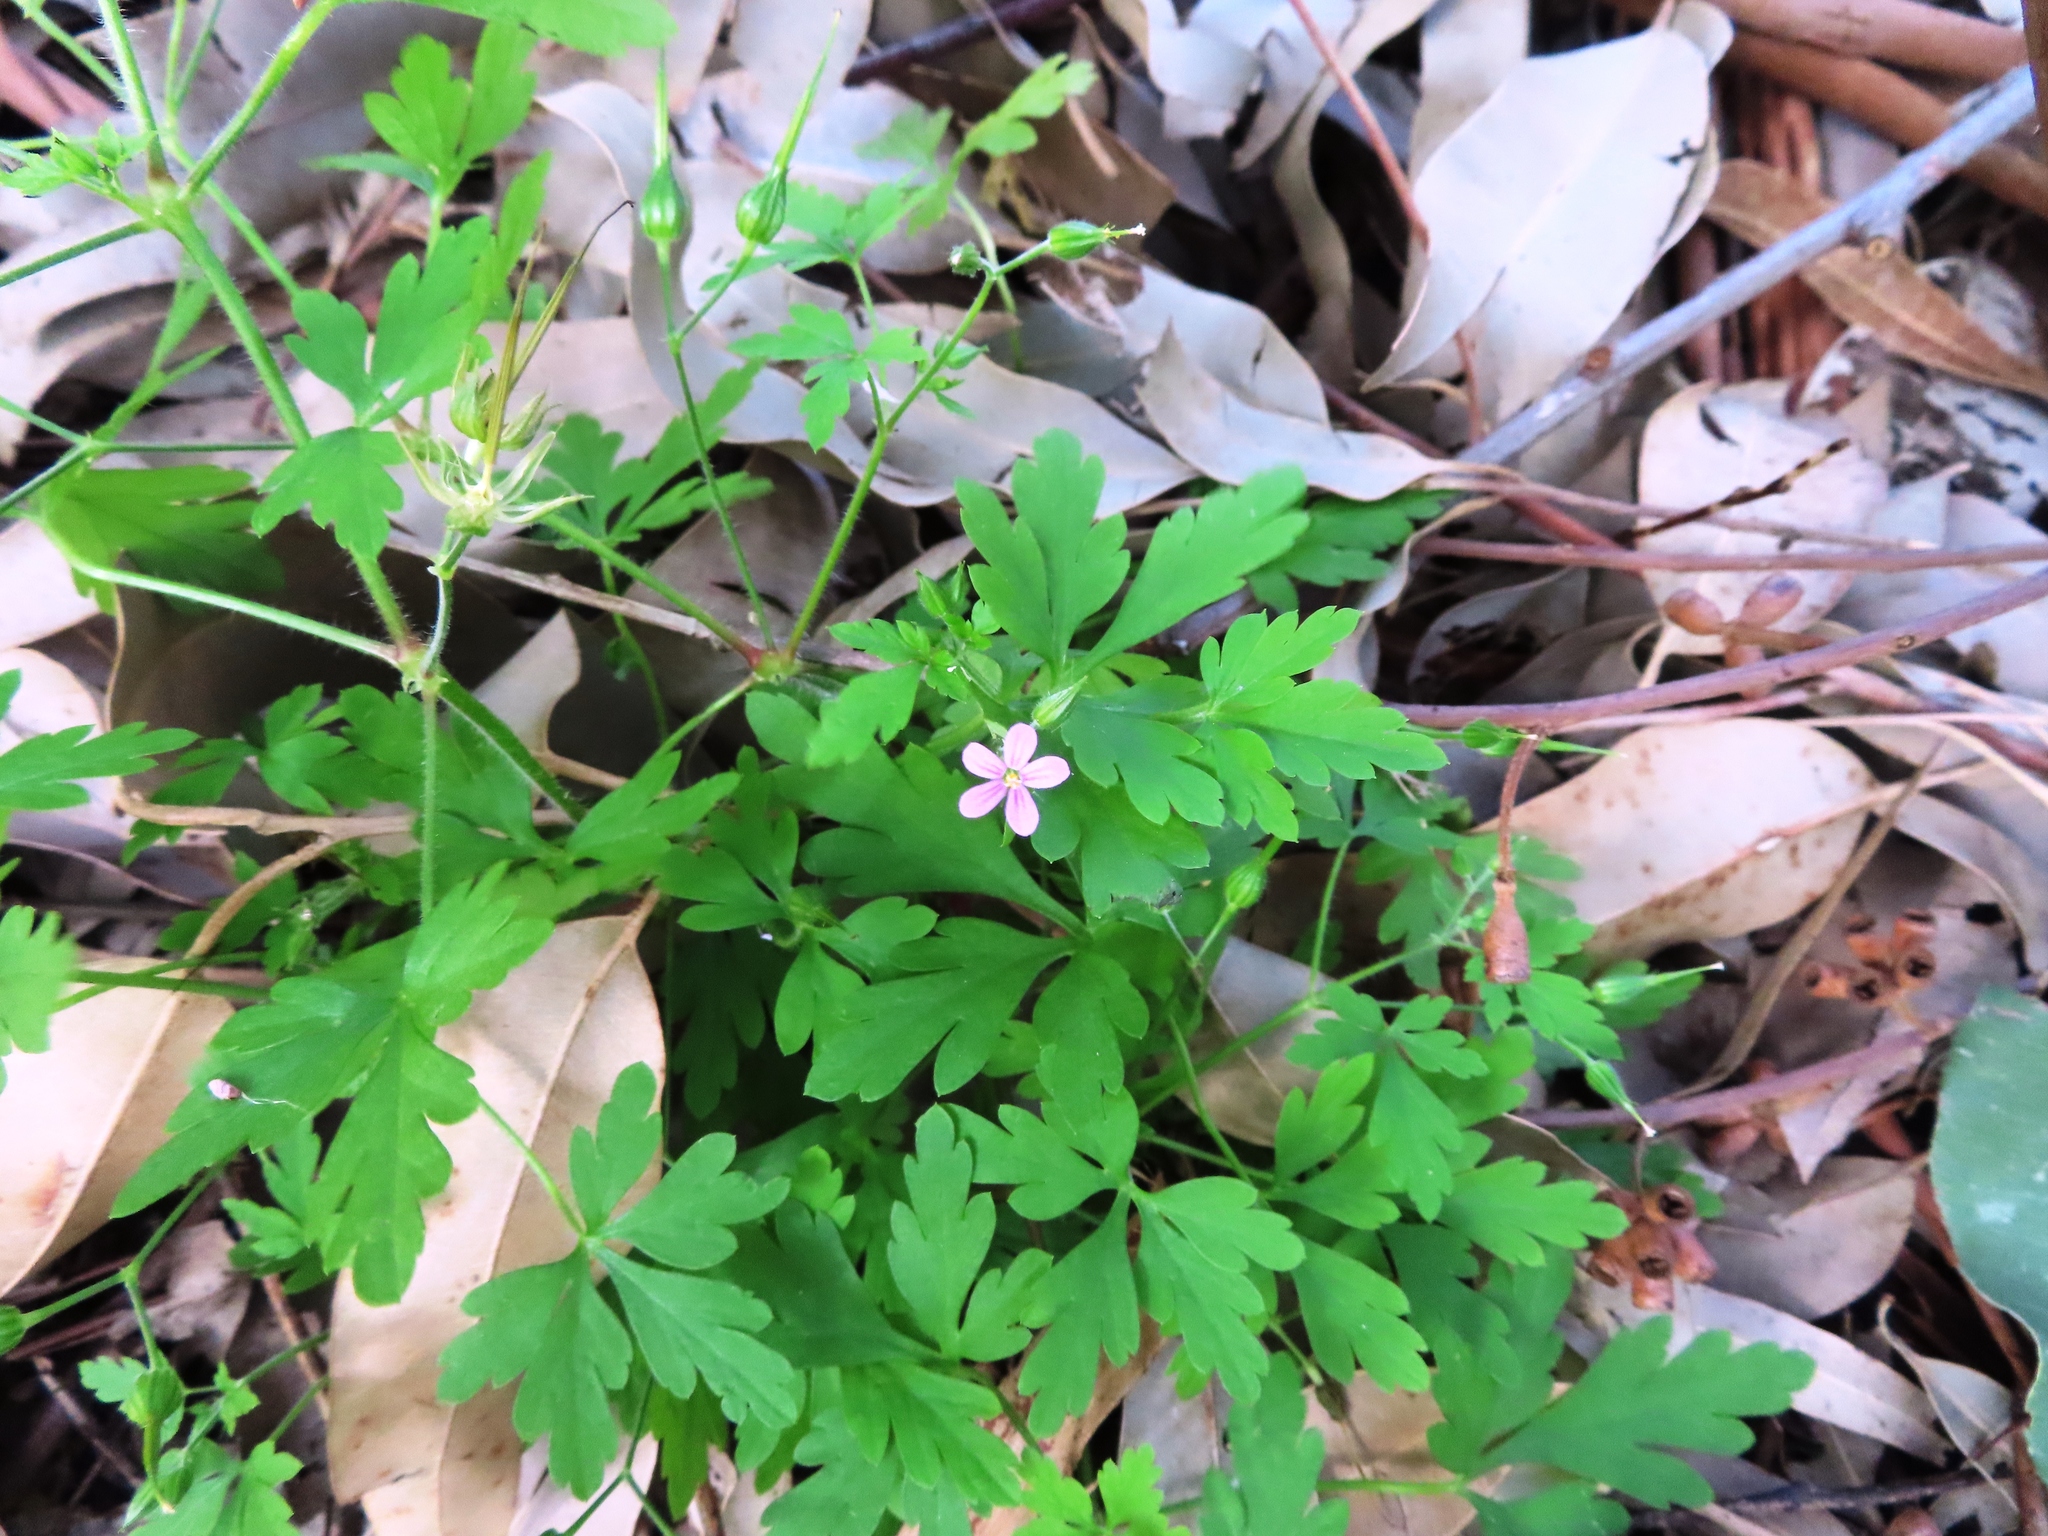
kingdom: Plantae
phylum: Tracheophyta
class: Magnoliopsida
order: Geraniales
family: Geraniaceae
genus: Geranium
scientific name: Geranium purpureum
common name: Little-robin
